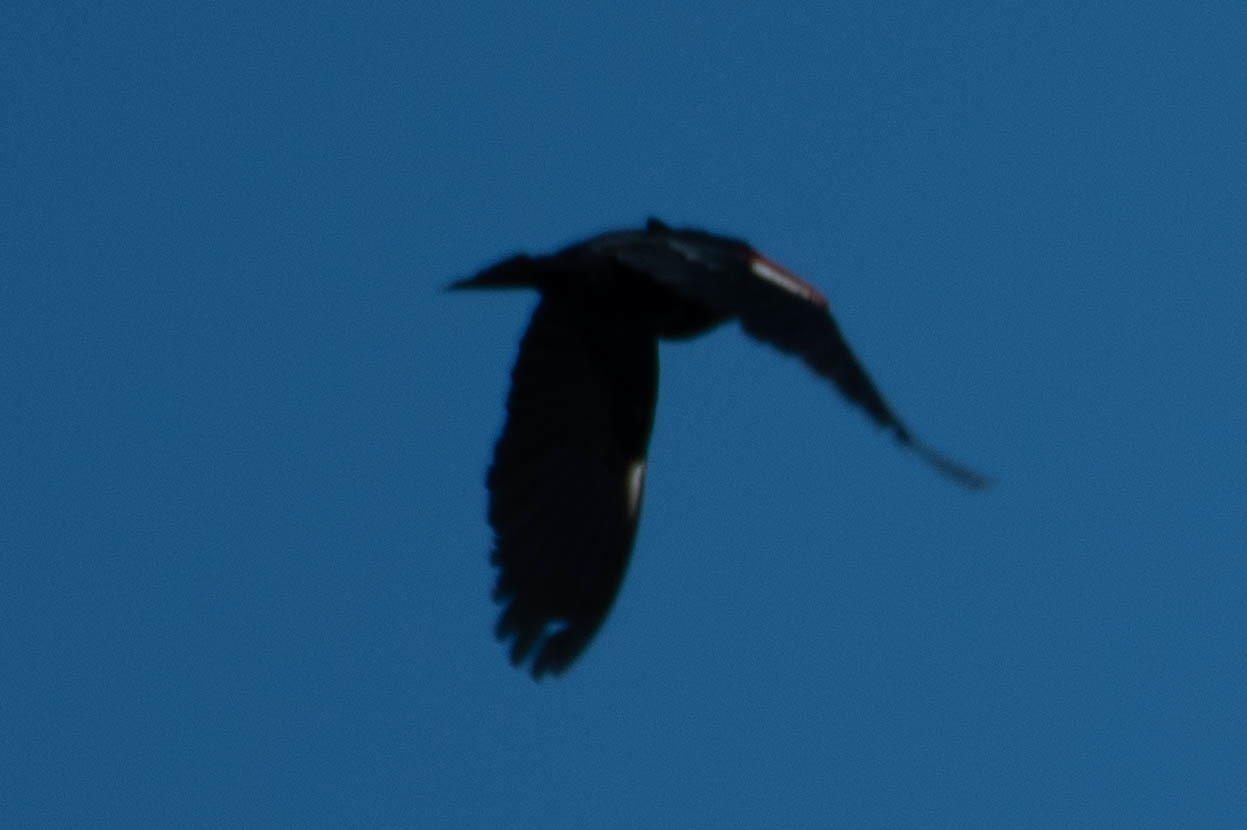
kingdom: Animalia
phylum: Chordata
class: Aves
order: Passeriformes
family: Icteridae
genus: Agelaius
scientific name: Agelaius tricolor
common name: Tricolored blackbird
